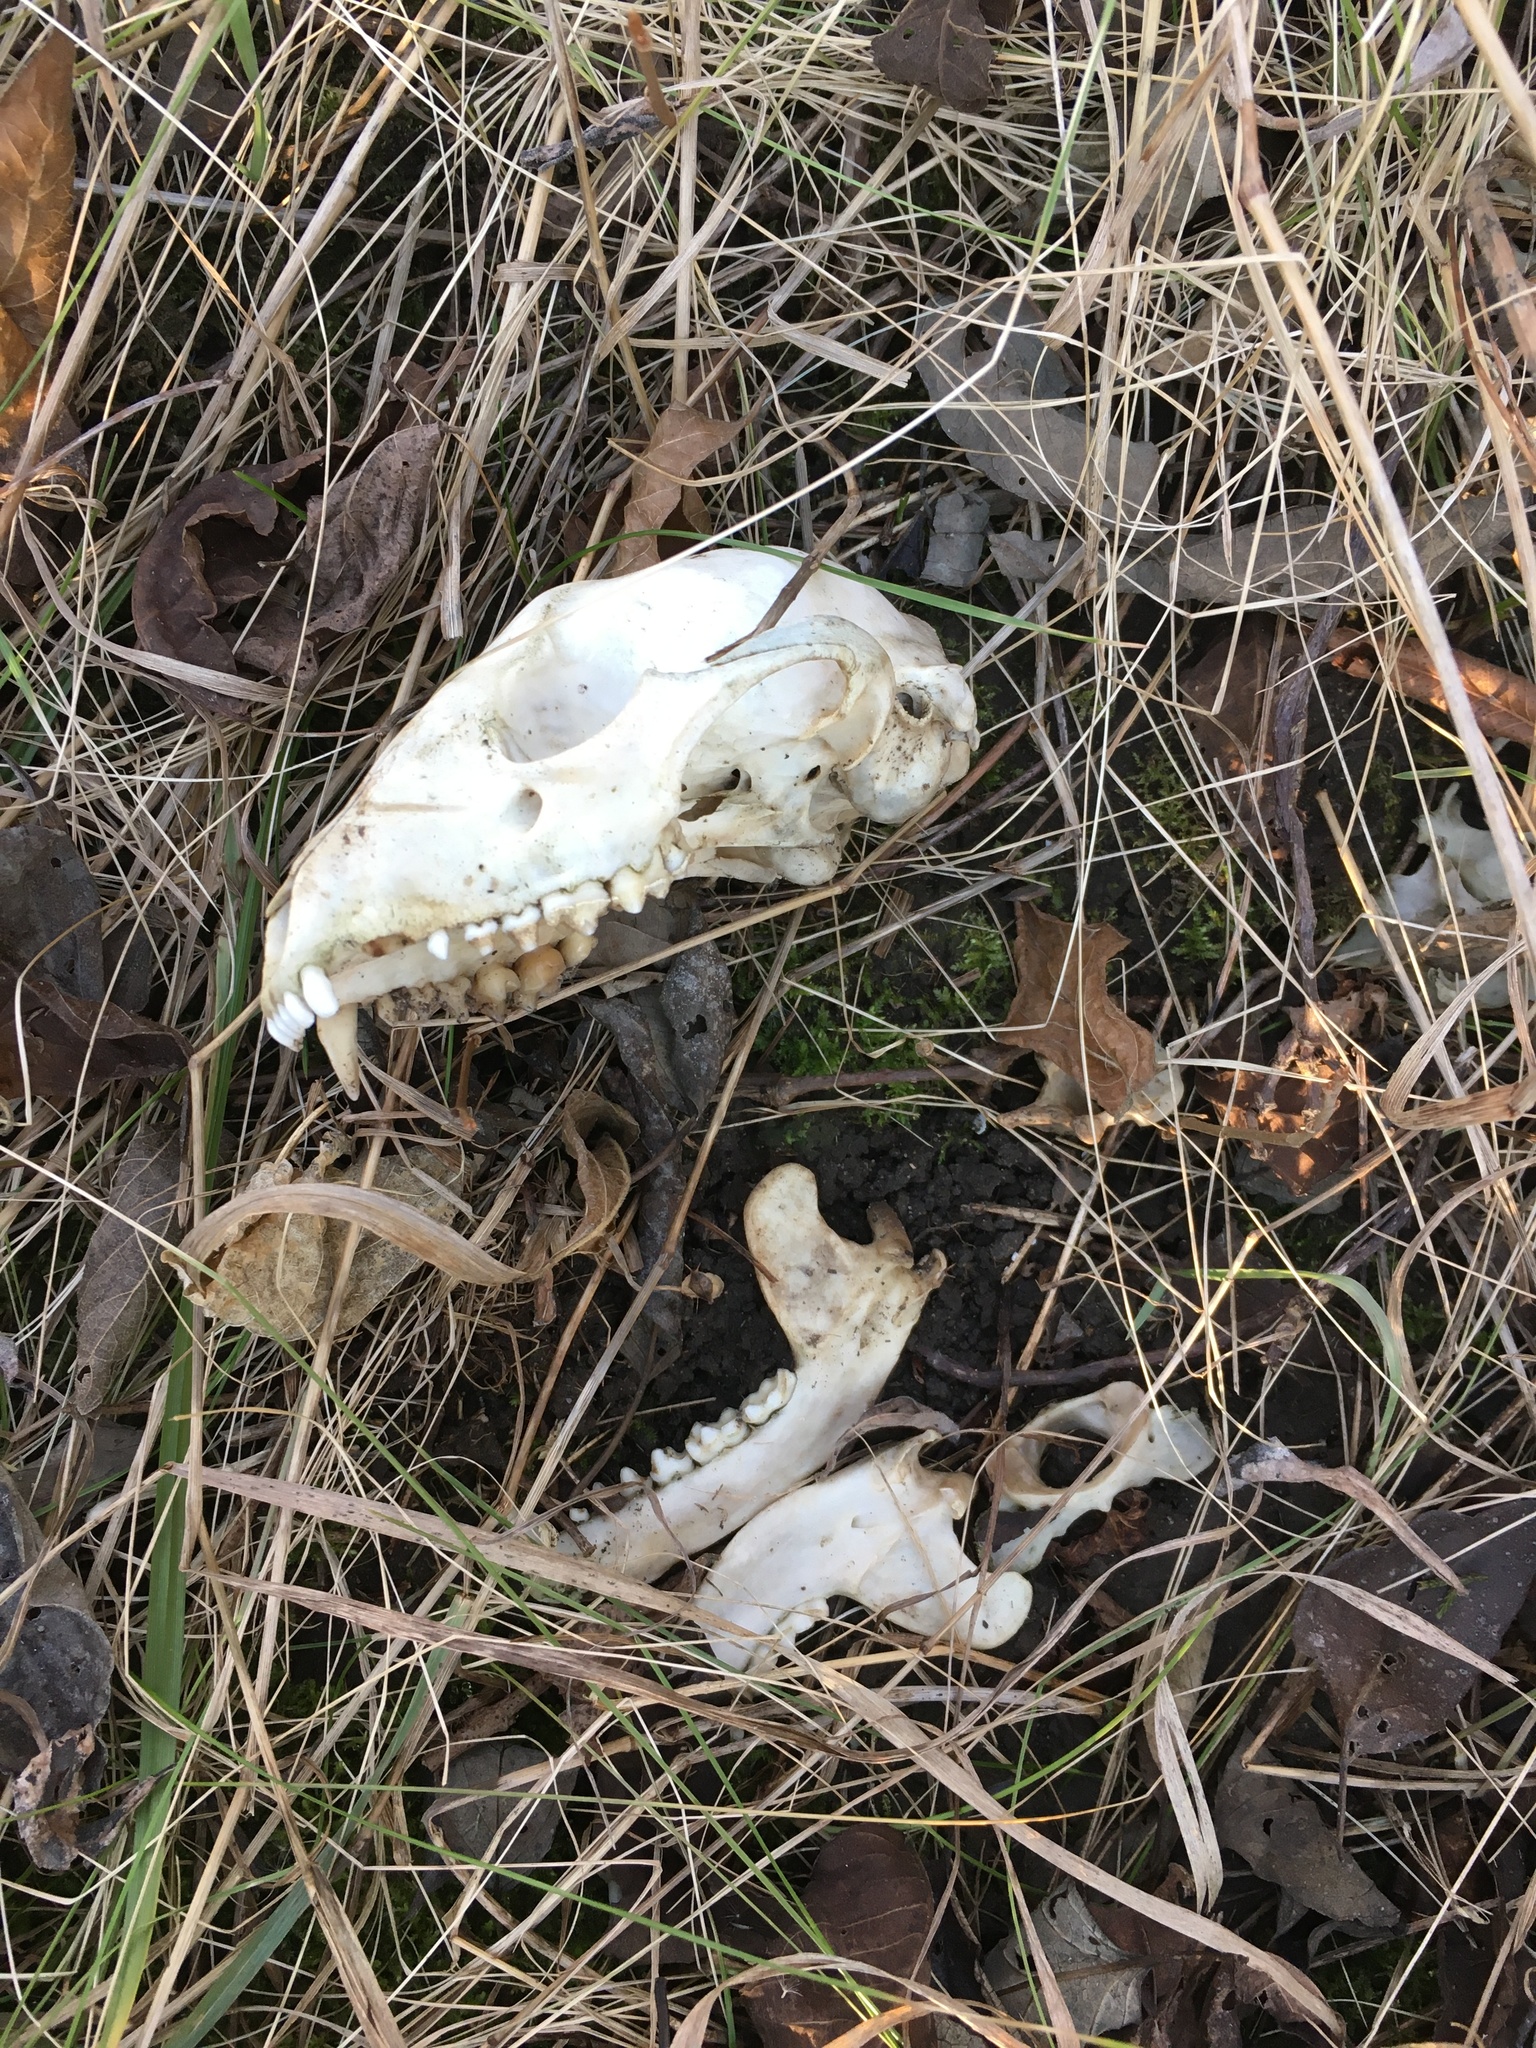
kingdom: Animalia
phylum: Chordata
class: Mammalia
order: Carnivora
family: Procyonidae
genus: Procyon
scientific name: Procyon lotor
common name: Raccoon
